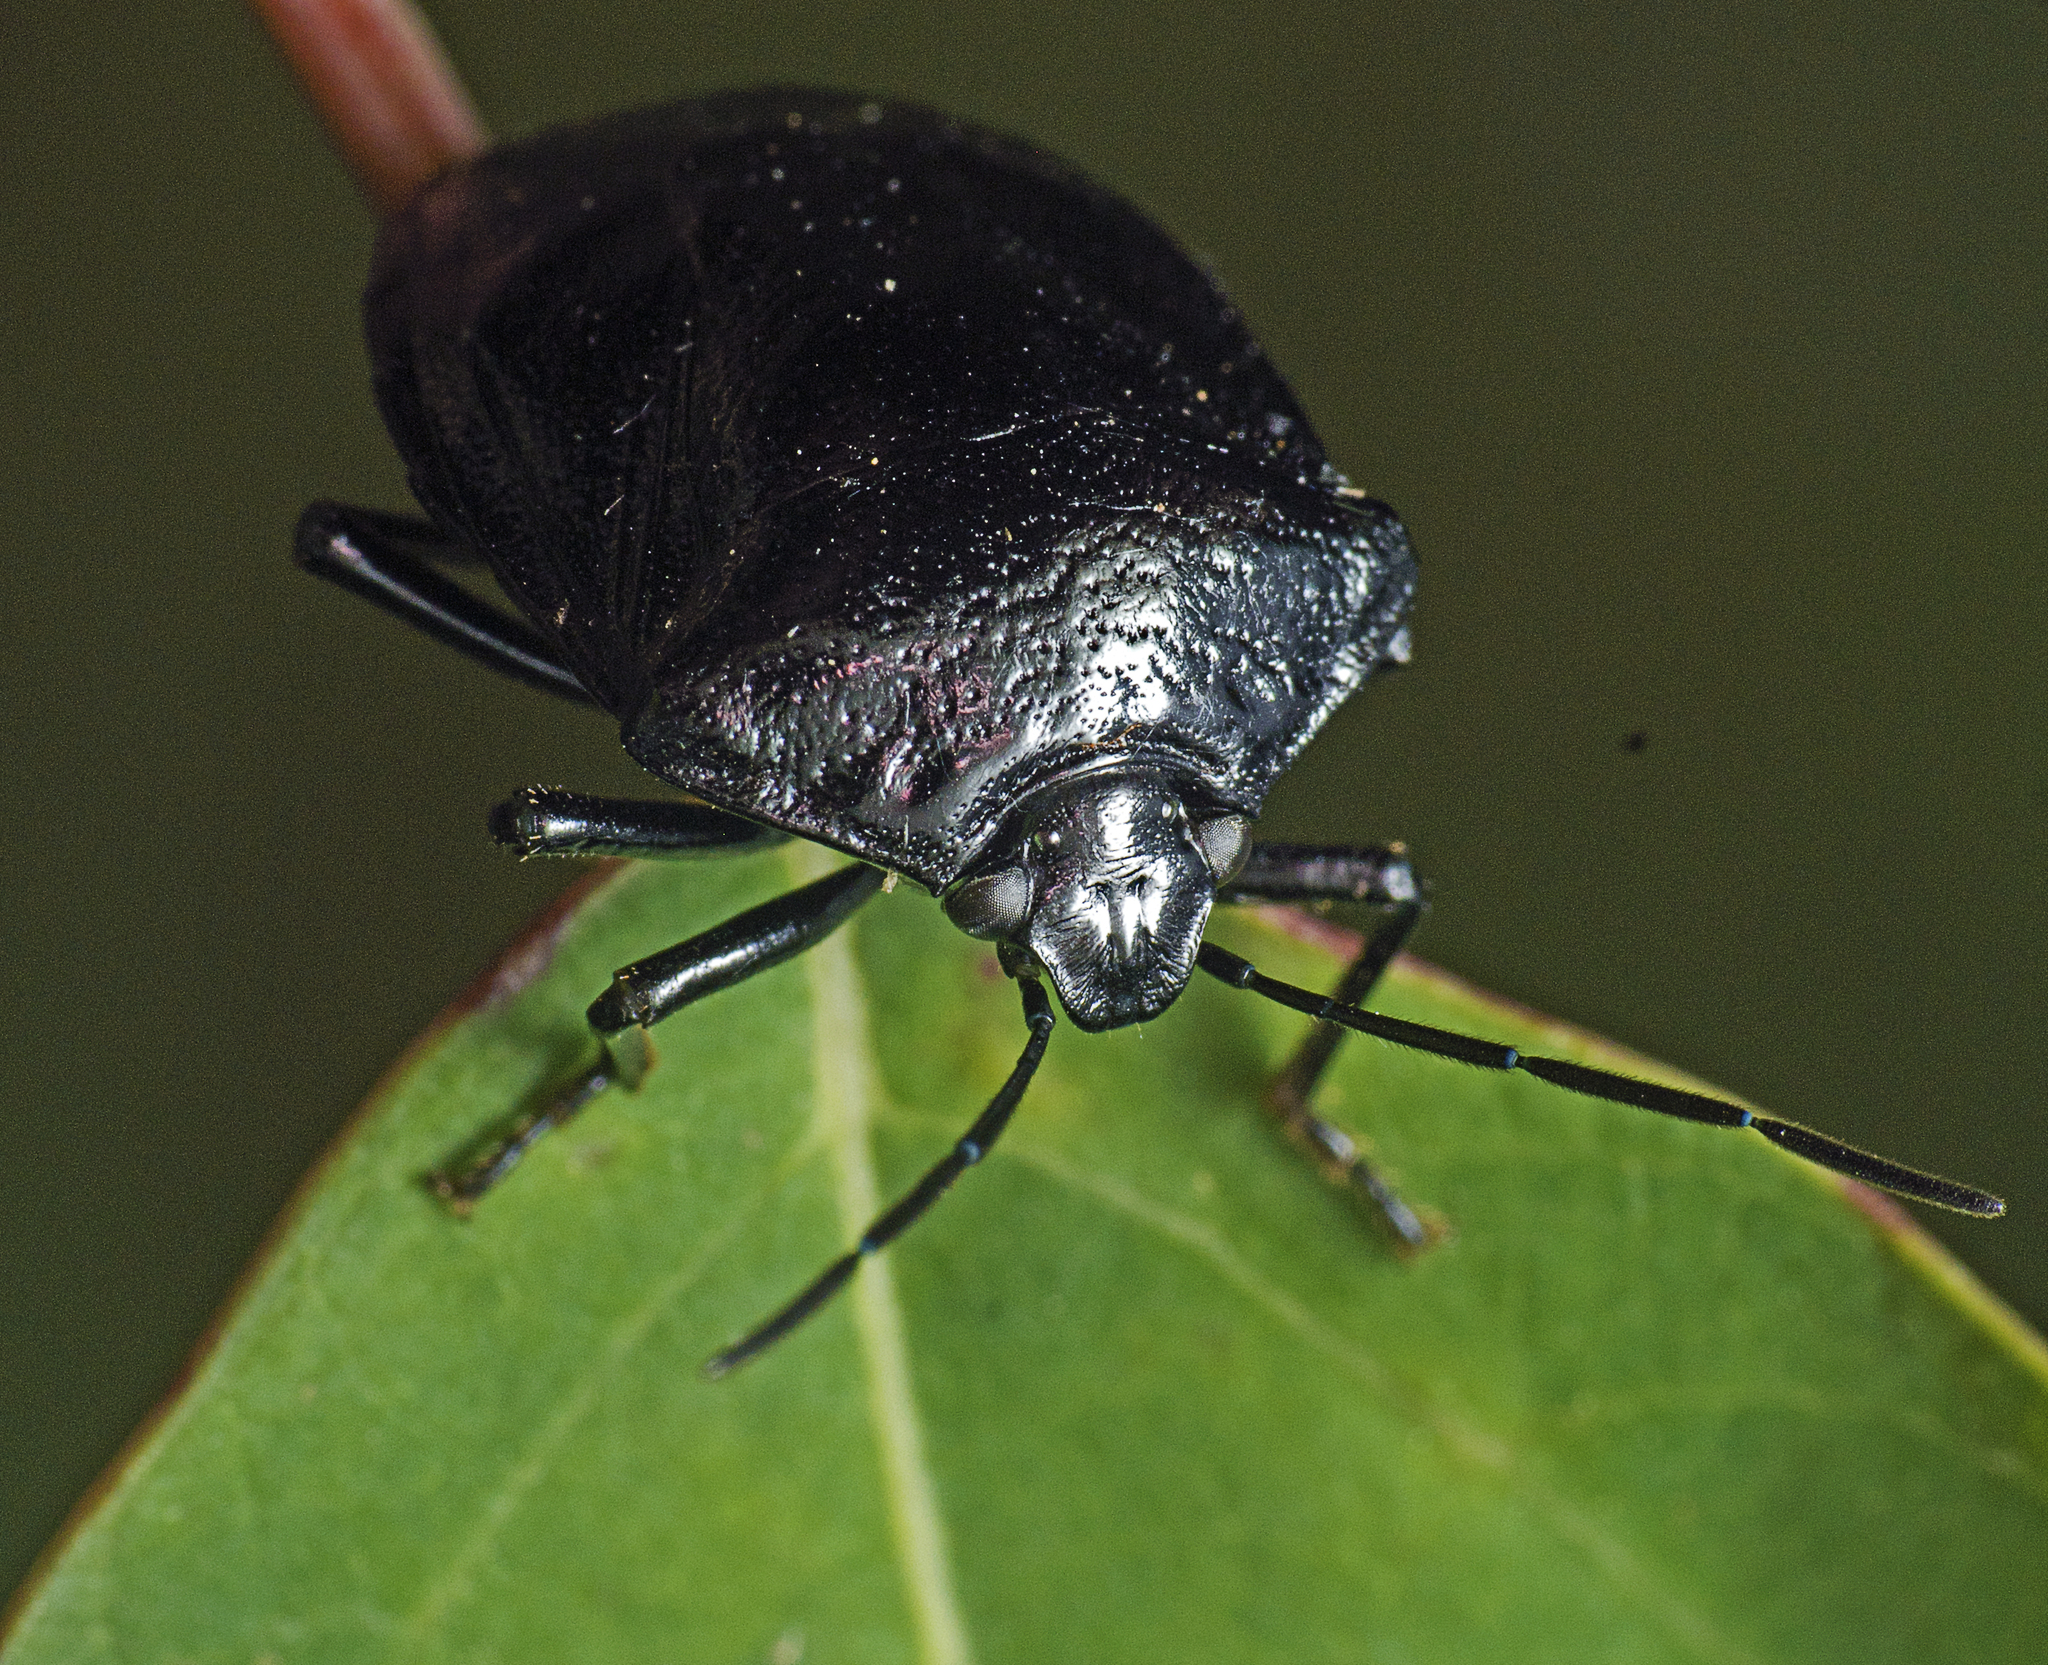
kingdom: Animalia
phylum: Arthropoda
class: Insecta
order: Hemiptera
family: Pentatomidae
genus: Hyrmine
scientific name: Hyrmine
